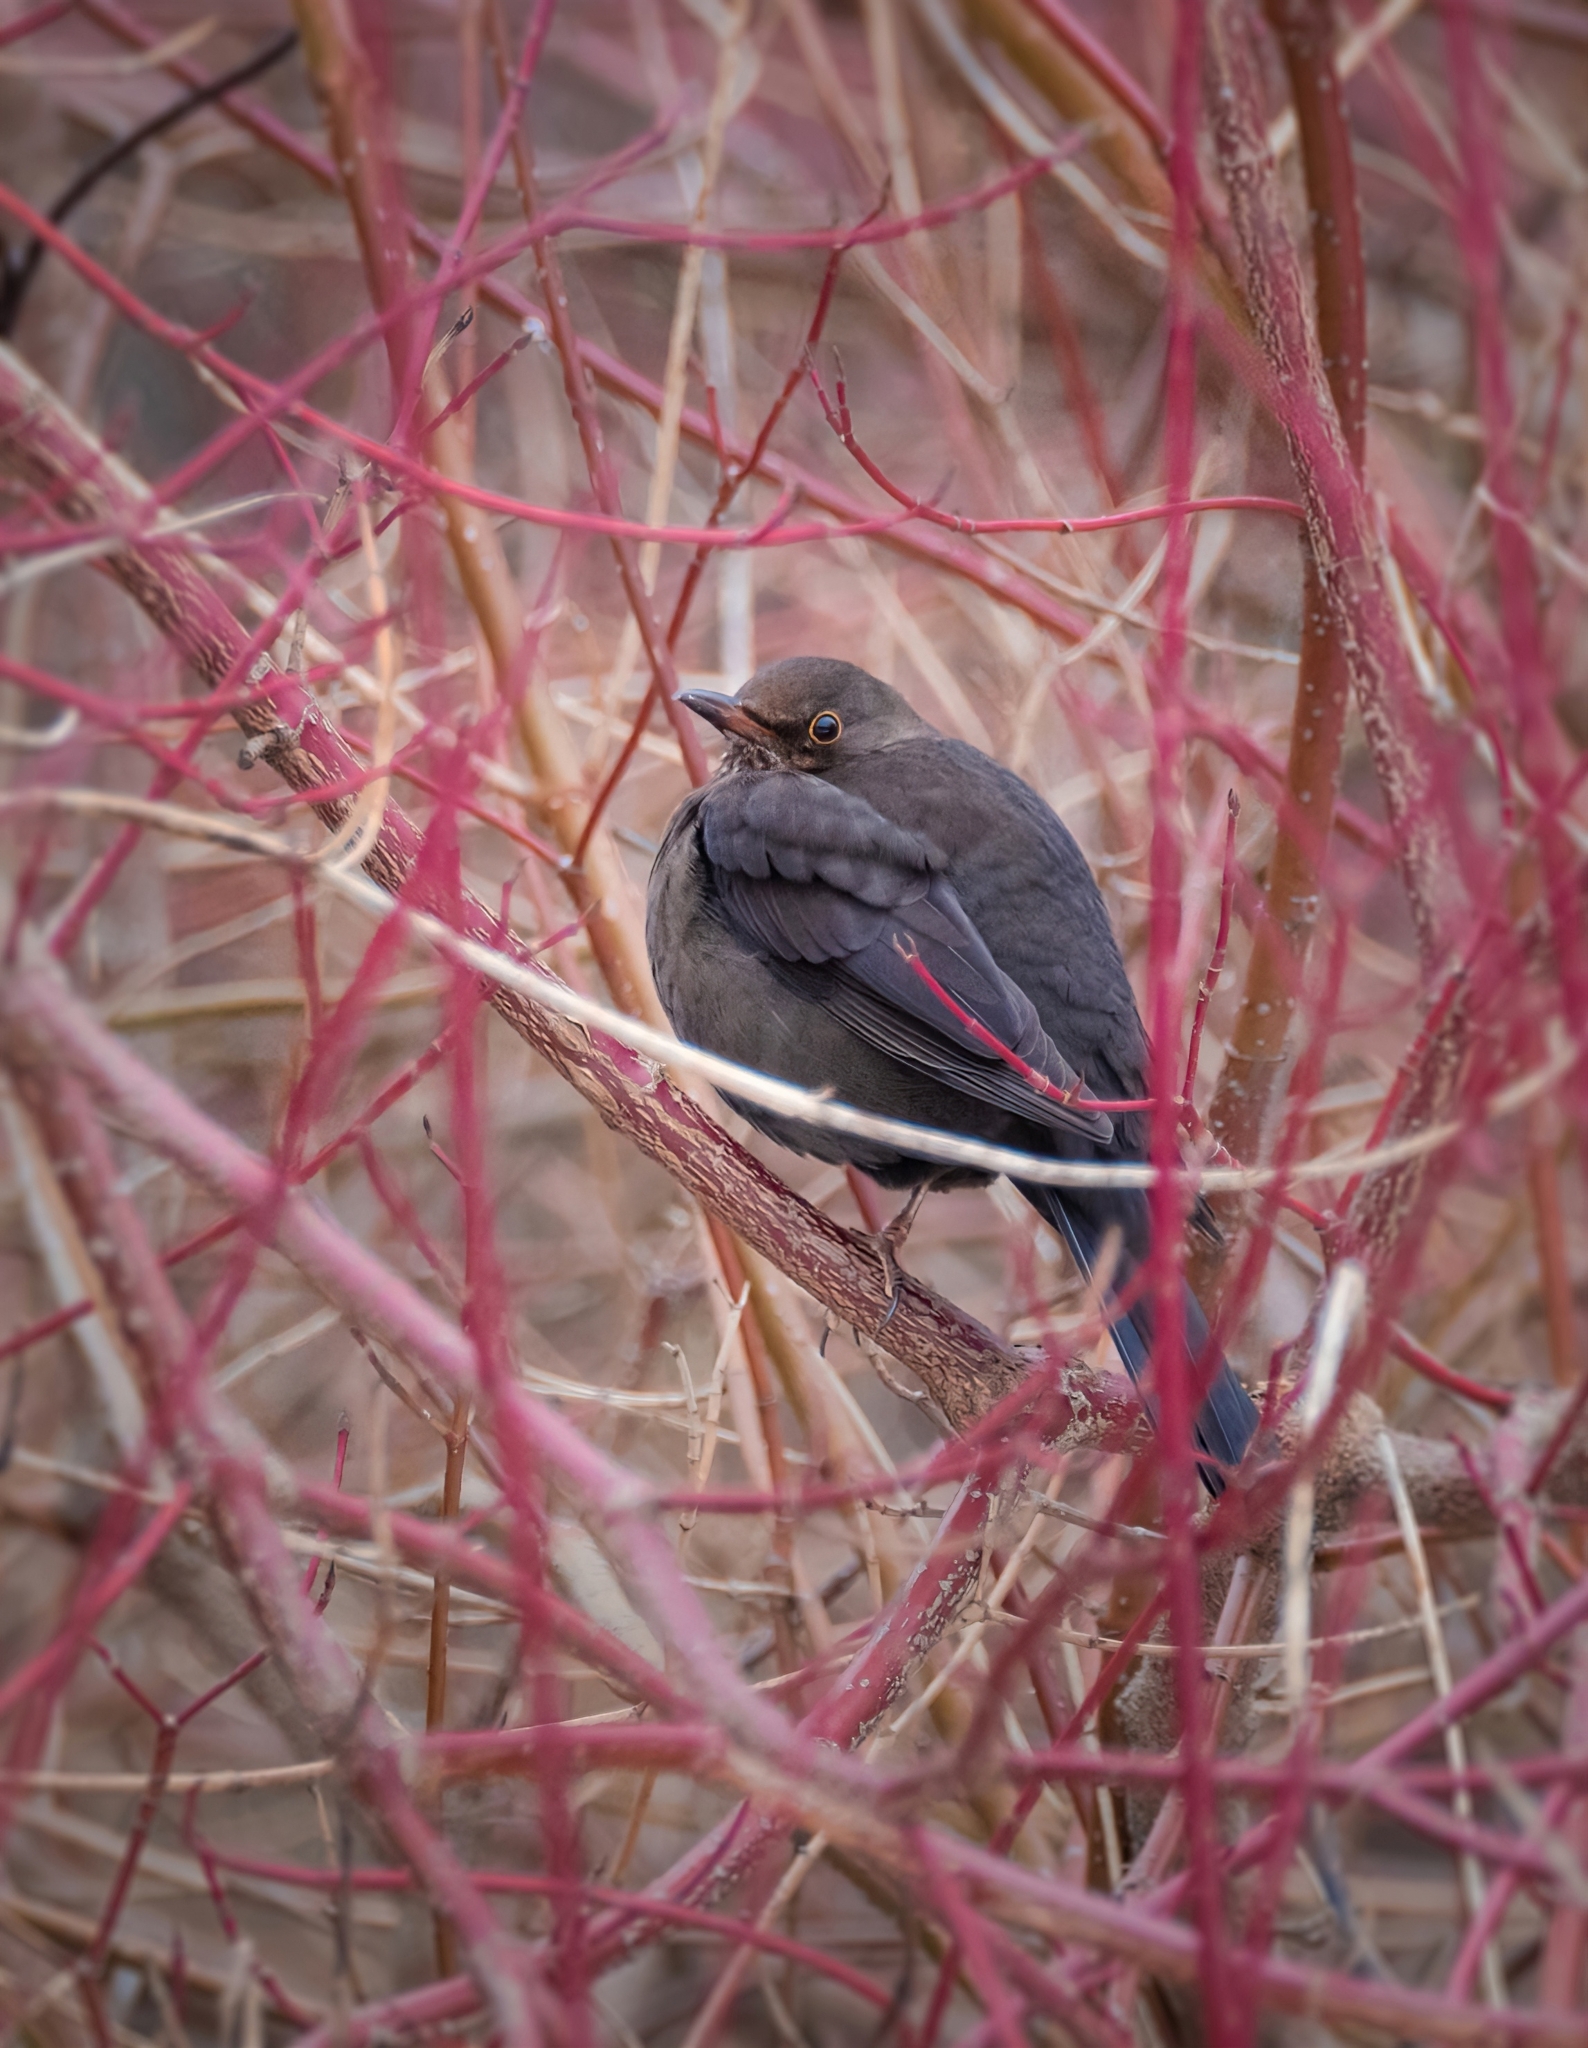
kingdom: Animalia
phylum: Chordata
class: Aves
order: Passeriformes
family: Turdidae
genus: Turdus
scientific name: Turdus merula
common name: Common blackbird
